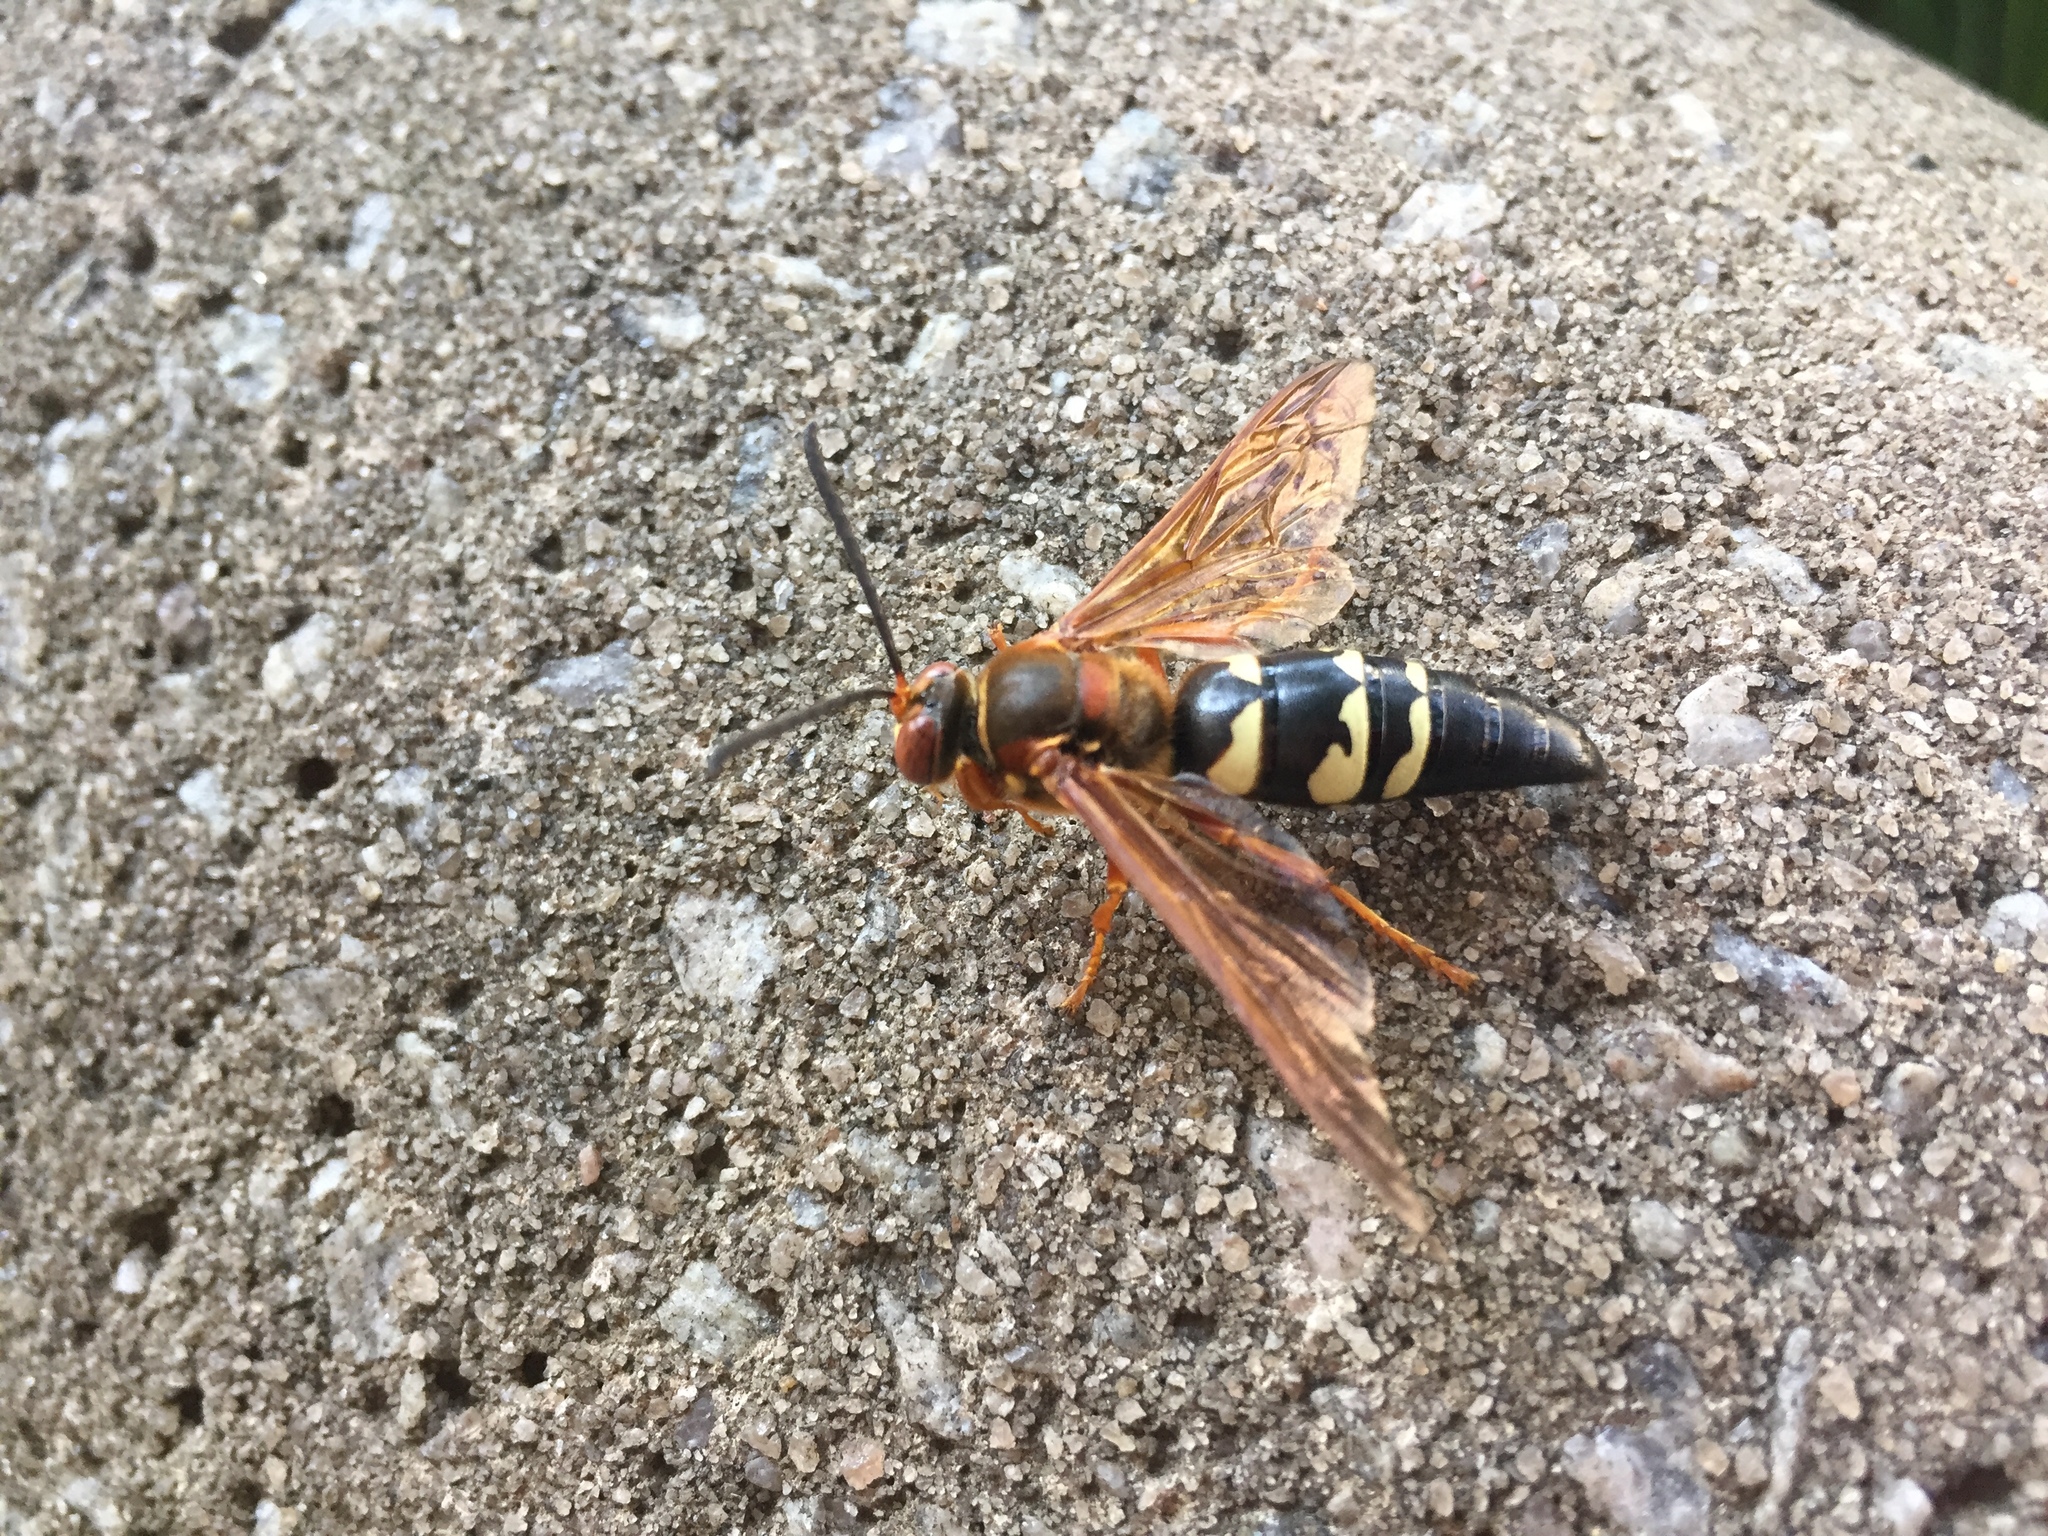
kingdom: Animalia
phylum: Arthropoda
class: Insecta
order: Hymenoptera
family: Crabronidae
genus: Sphecius
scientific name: Sphecius speciosus
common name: Cicada killer
